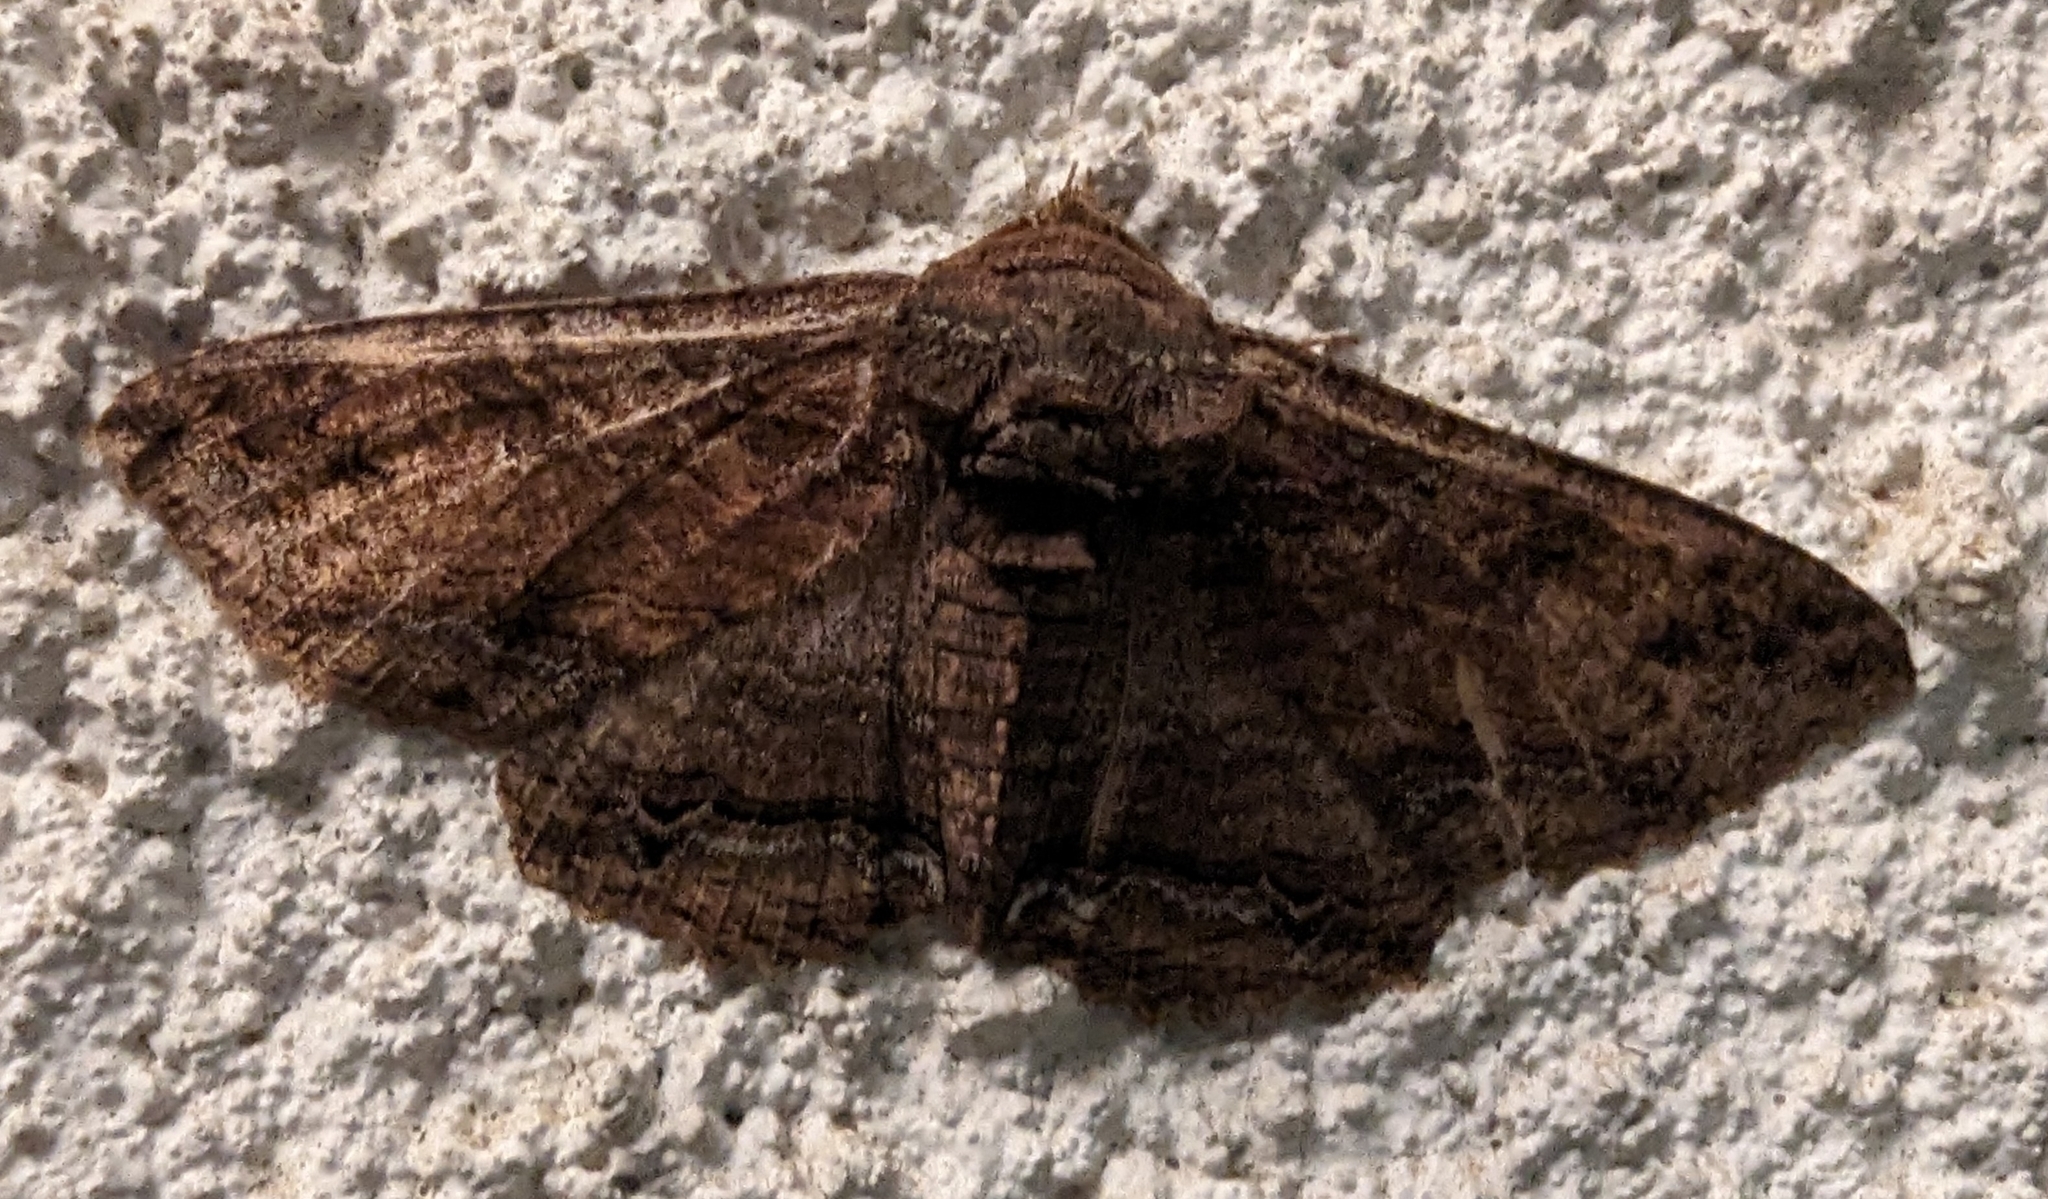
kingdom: Animalia
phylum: Arthropoda
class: Insecta
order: Lepidoptera
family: Erebidae
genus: Zale
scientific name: Zale lunata
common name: Lunate zale moth
